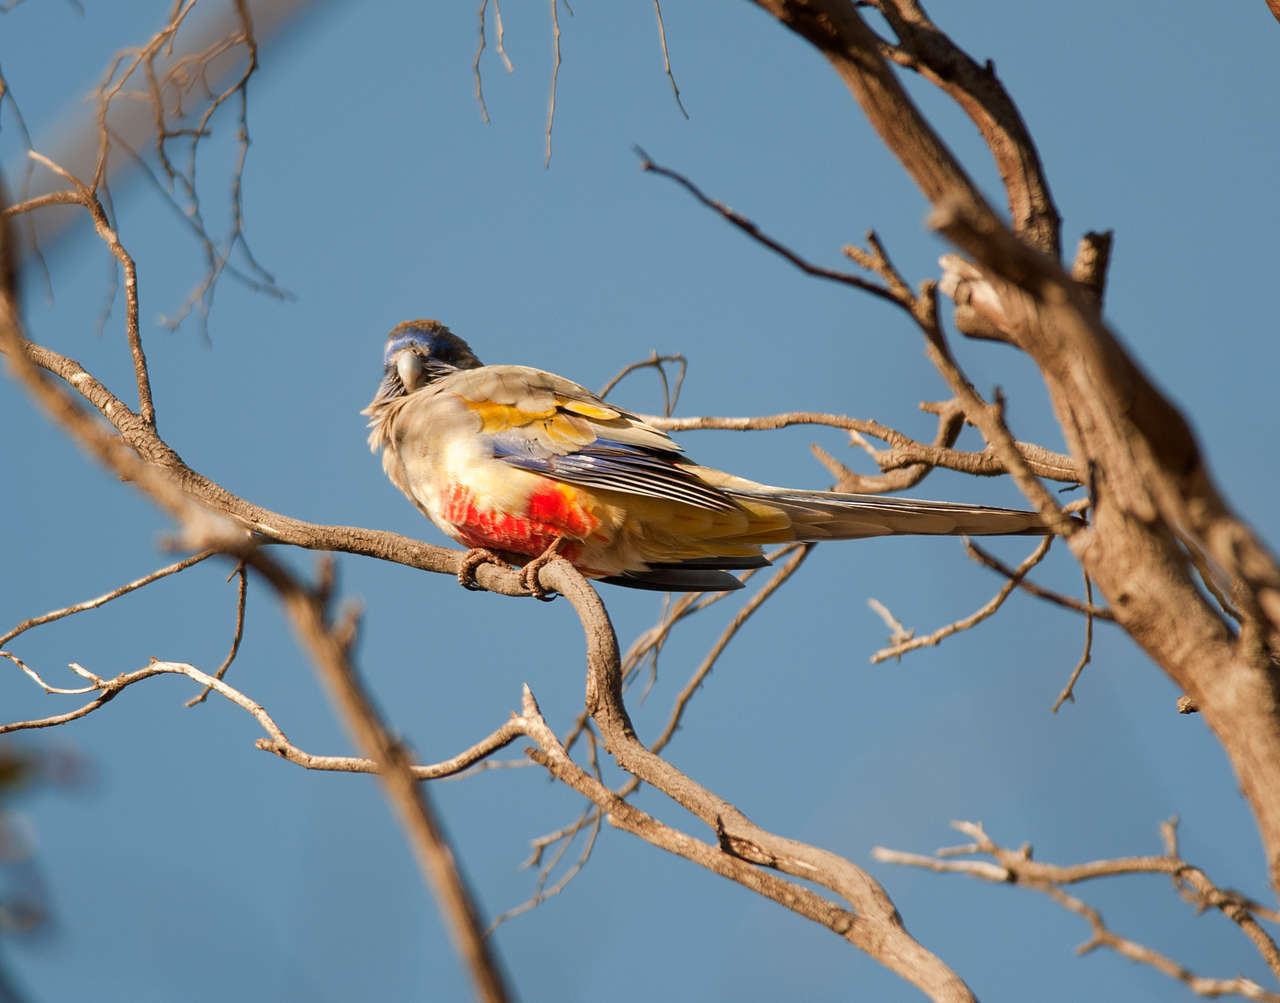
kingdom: Animalia
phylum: Chordata
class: Aves
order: Psittaciformes
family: Psittacidae
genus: Northiella
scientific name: Northiella haematogaster
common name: Bluebonnet
